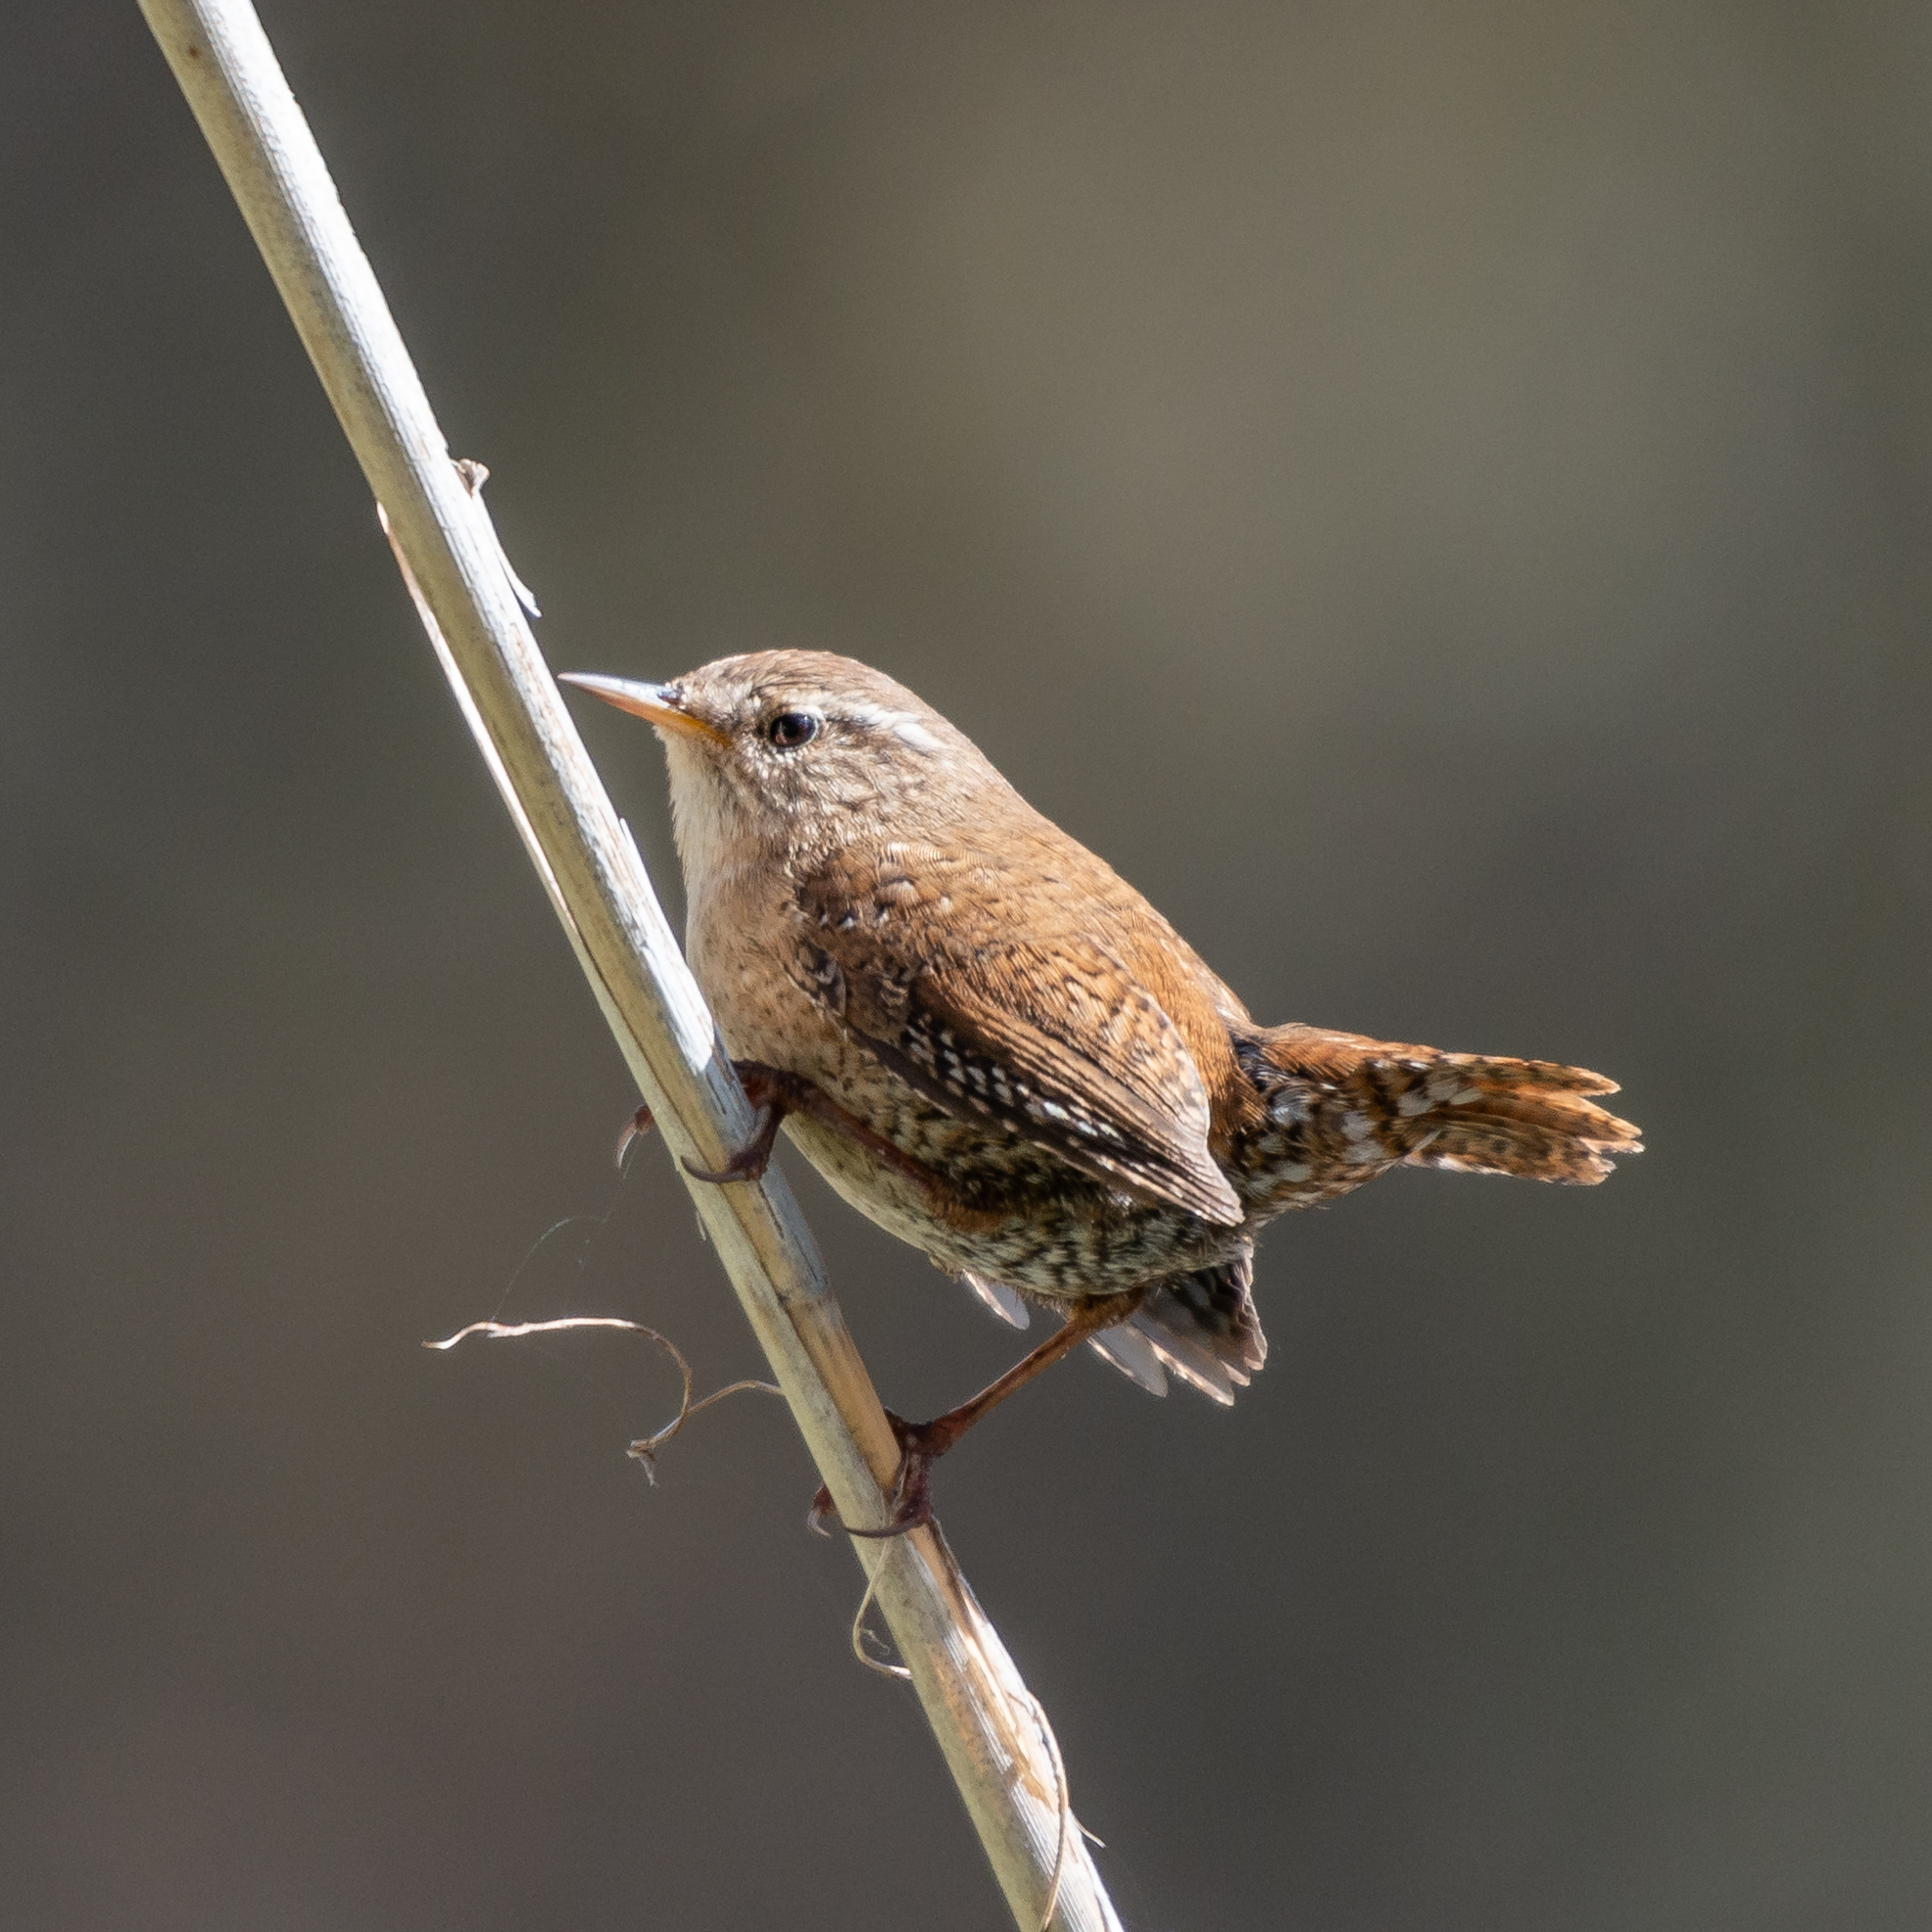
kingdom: Animalia
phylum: Chordata
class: Aves
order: Passeriformes
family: Troglodytidae
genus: Troglodytes
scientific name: Troglodytes troglodytes
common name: Eurasian wren
